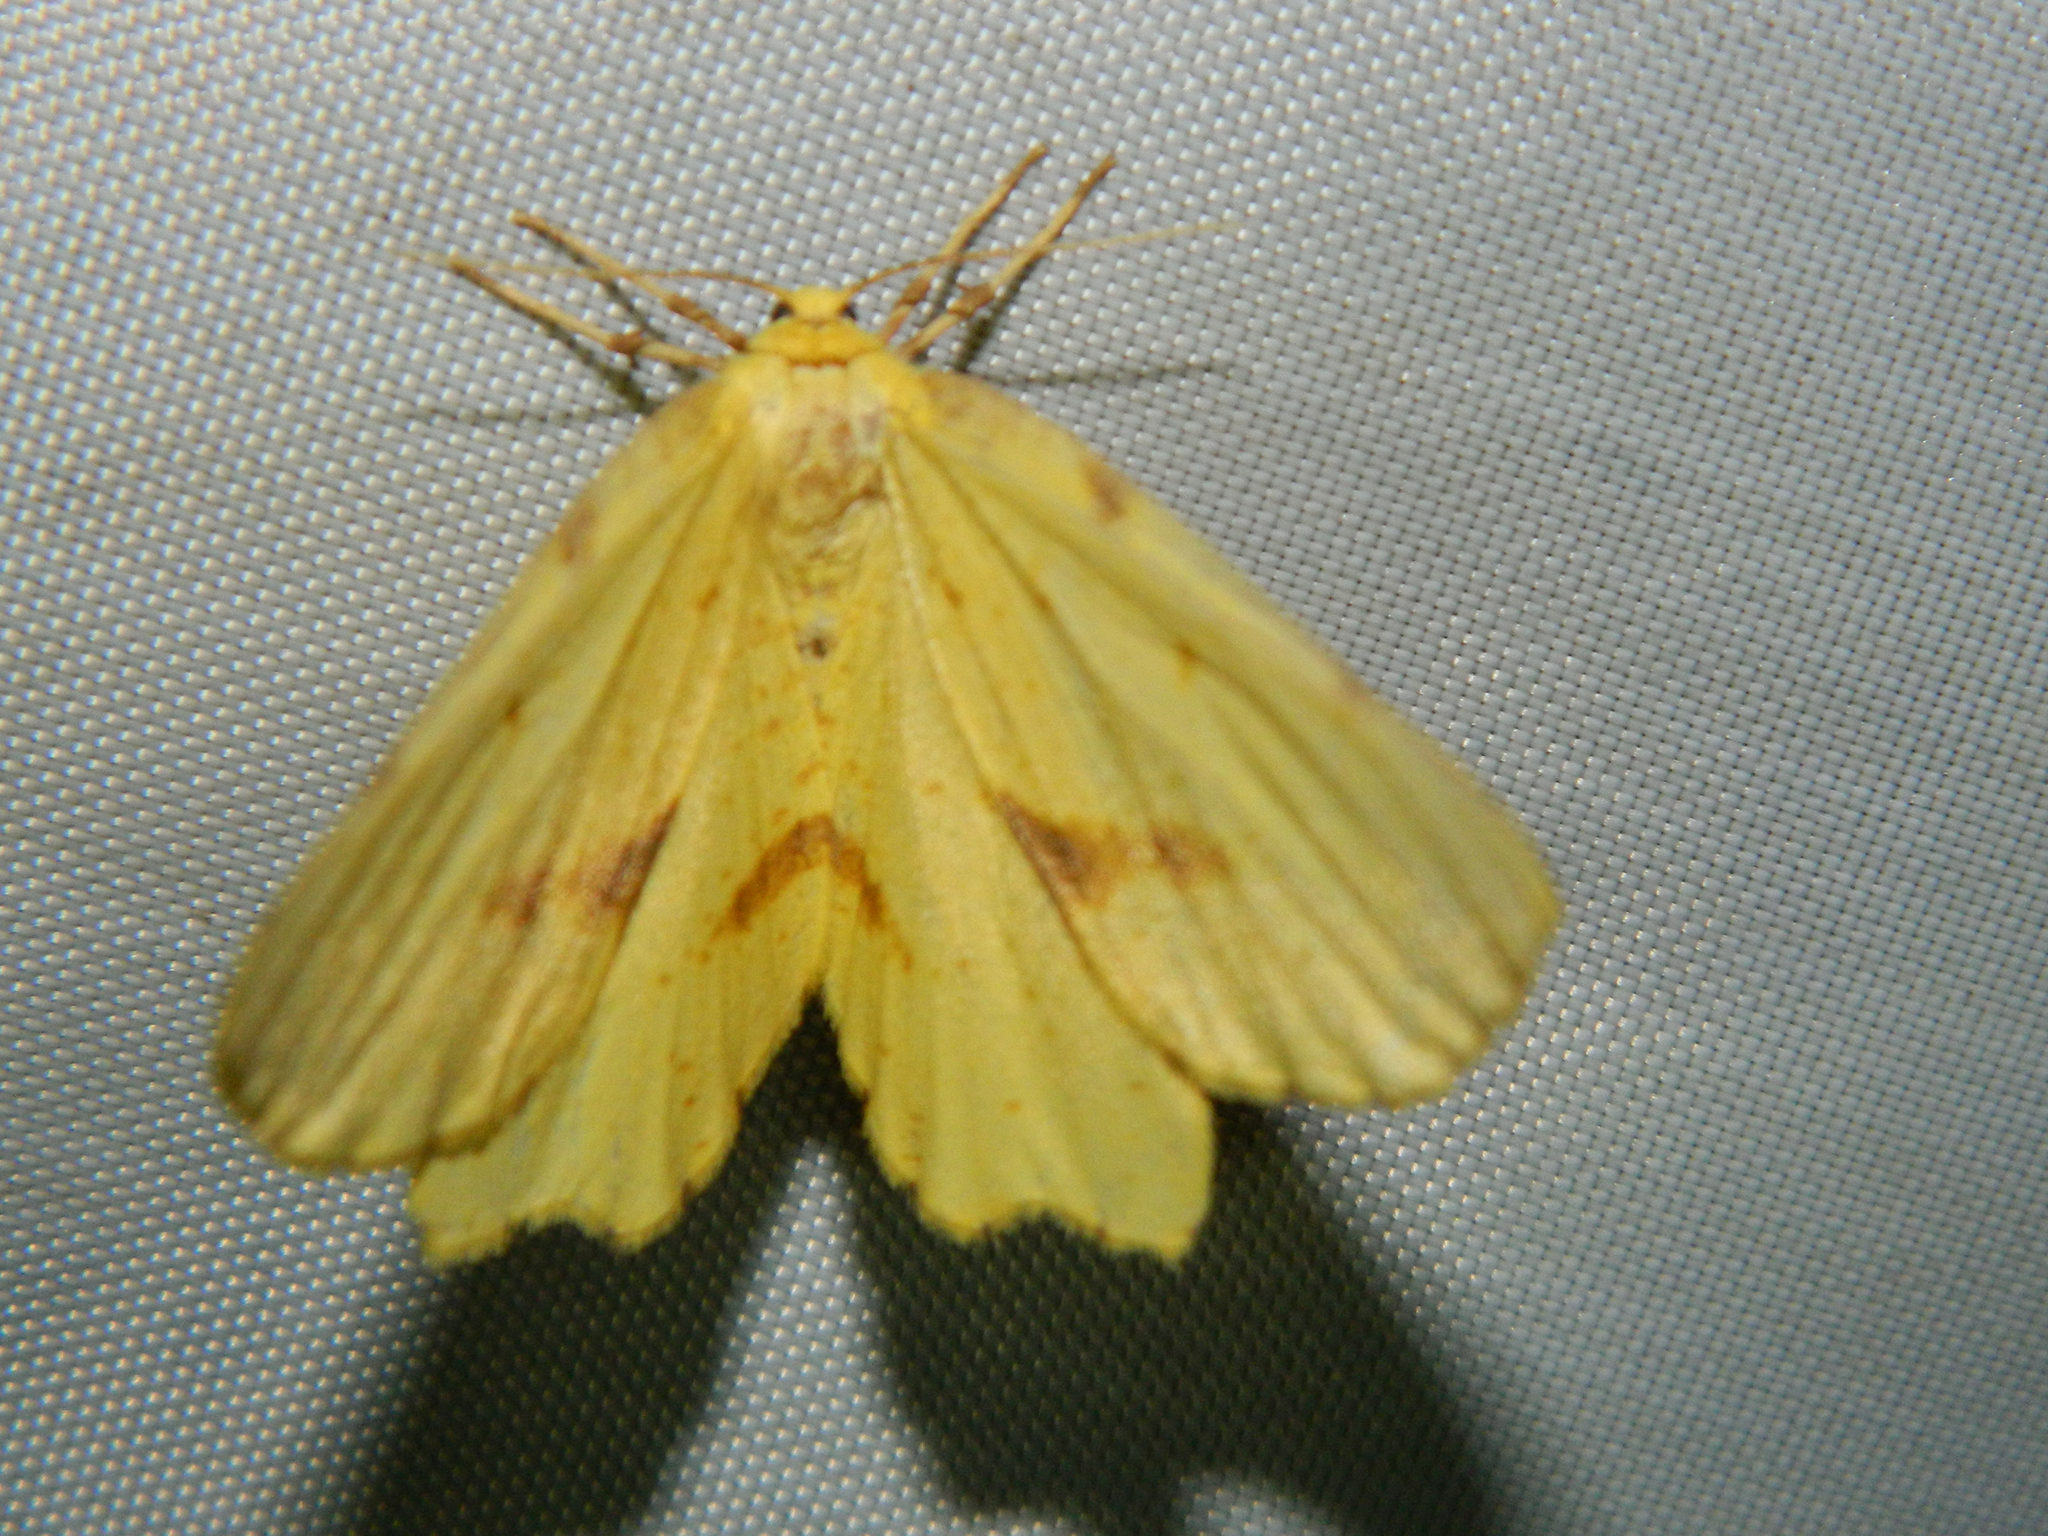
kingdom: Animalia
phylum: Arthropoda
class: Insecta
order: Lepidoptera
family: Geometridae
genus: Xanthotype
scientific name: Xanthotype
